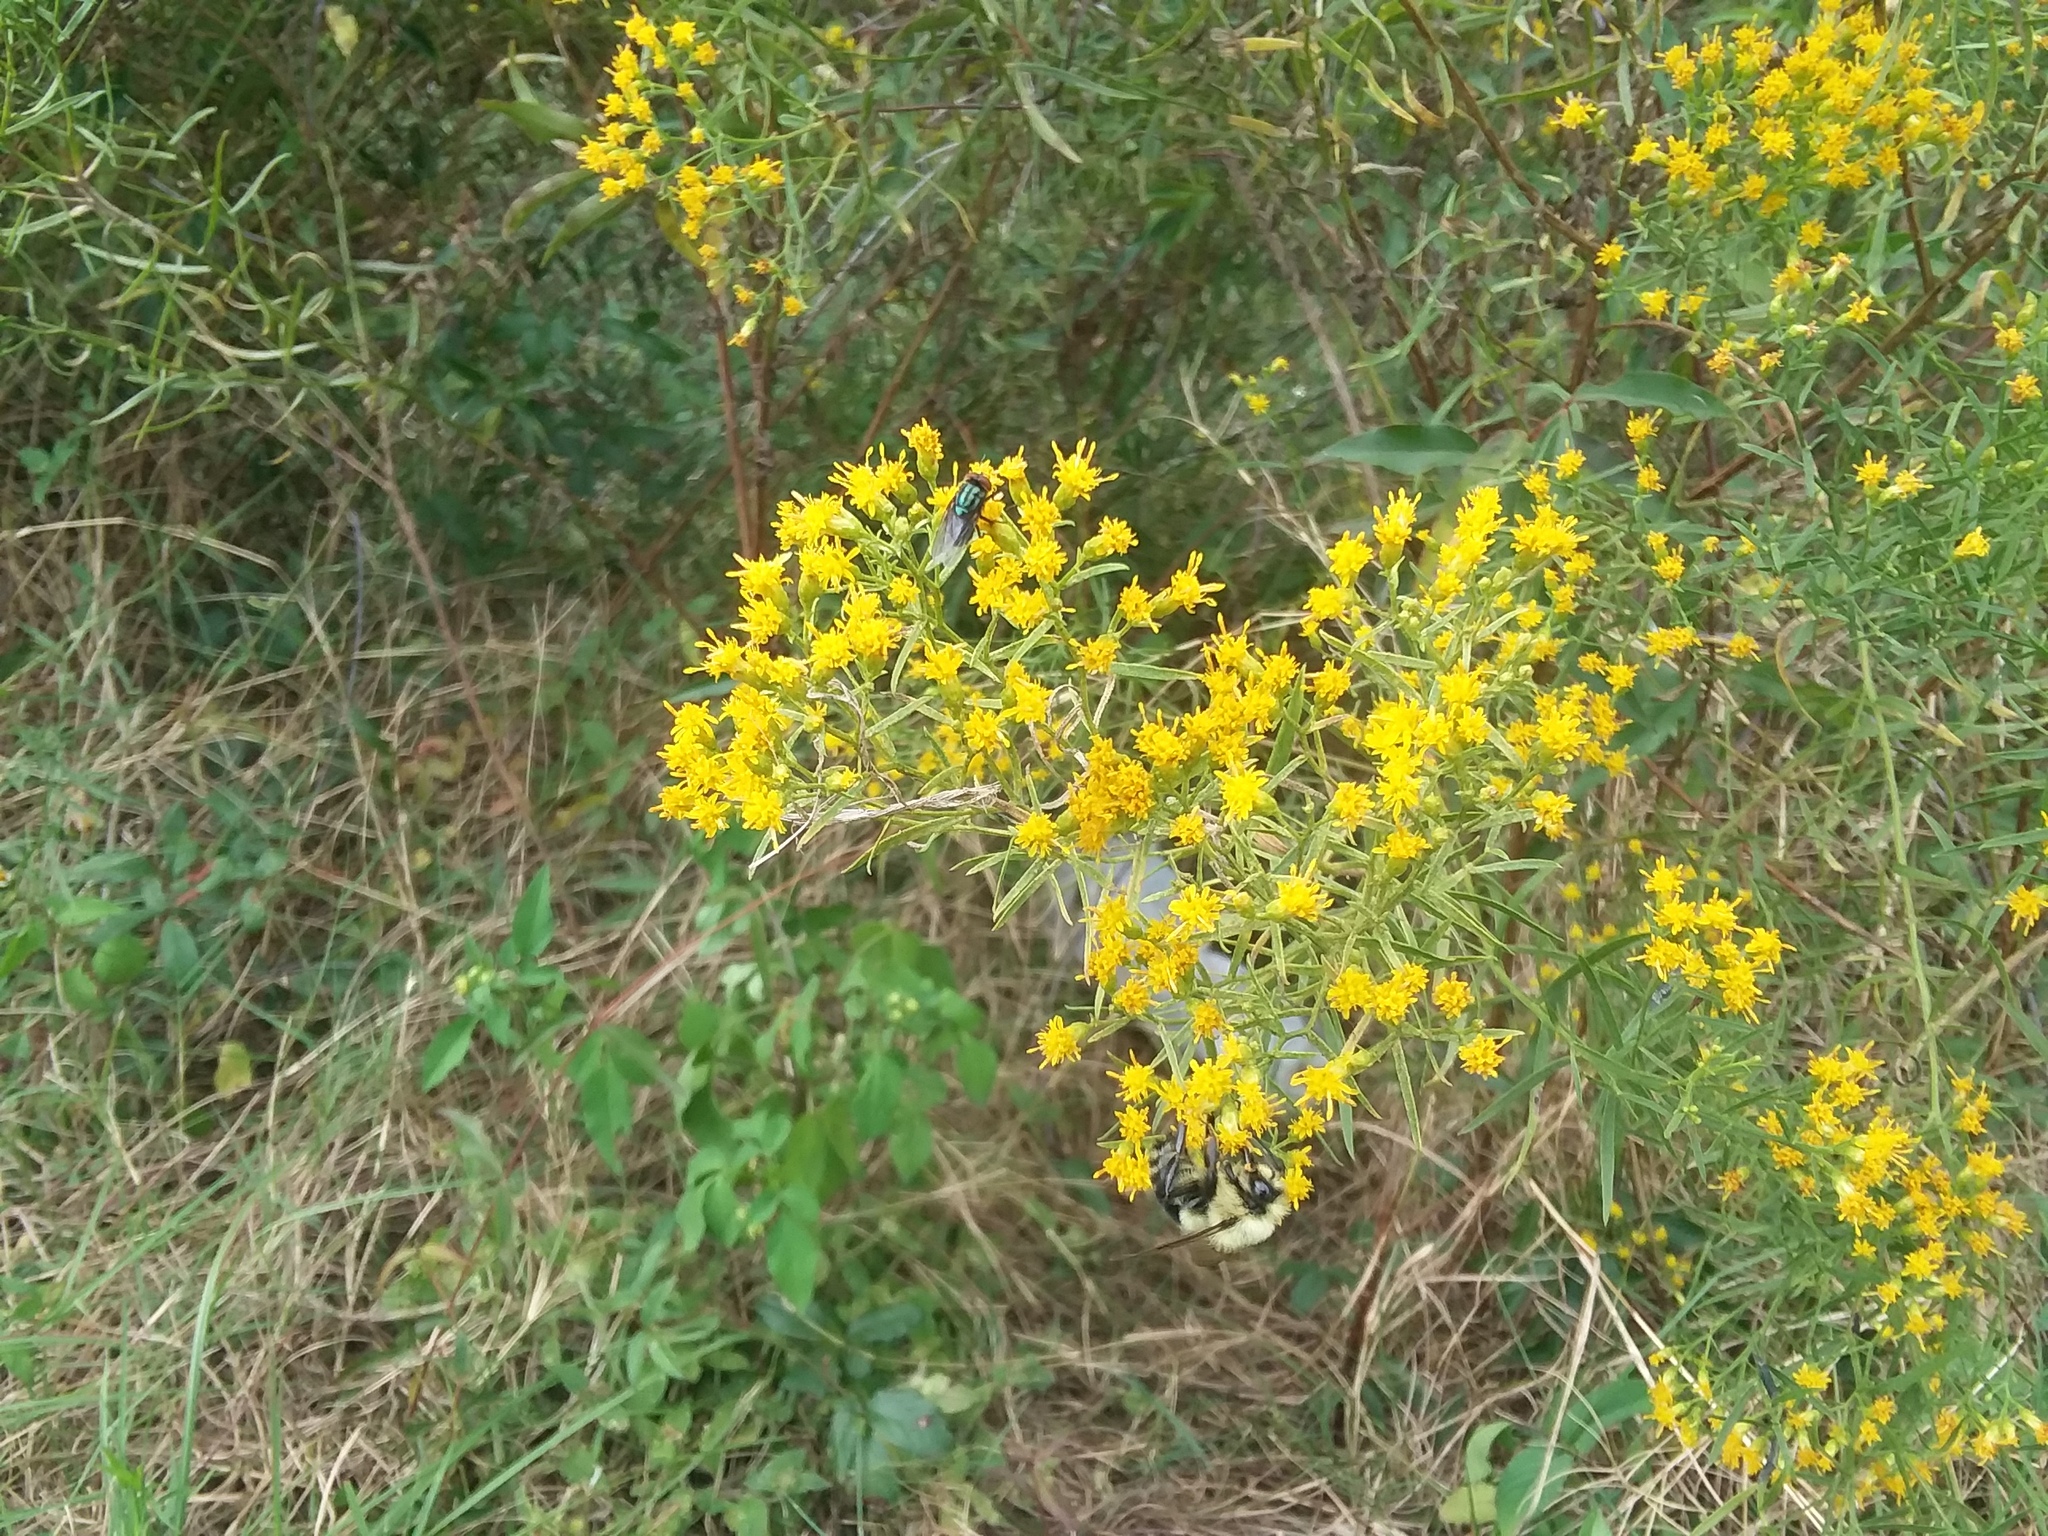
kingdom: Animalia
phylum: Arthropoda
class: Insecta
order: Hymenoptera
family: Apidae
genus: Bombus
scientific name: Bombus impatiens
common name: Common eastern bumble bee
